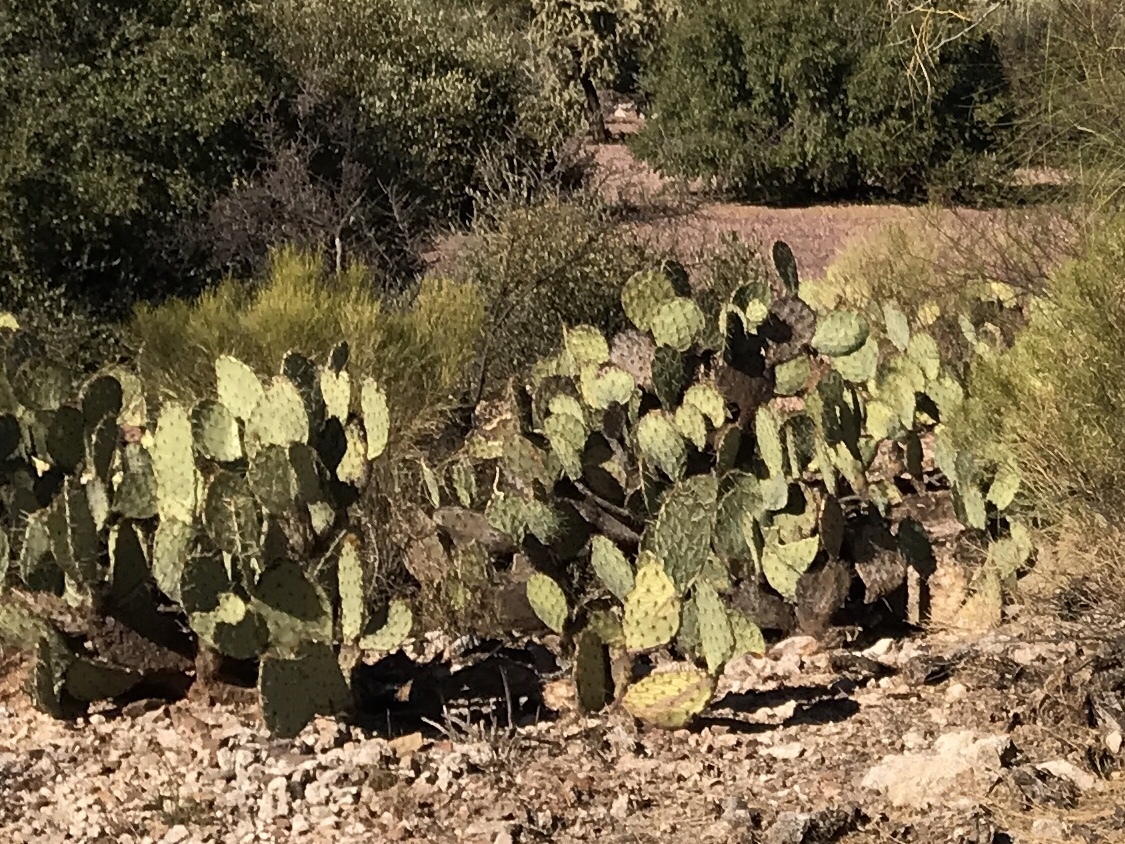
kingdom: Plantae
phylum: Tracheophyta
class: Magnoliopsida
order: Caryophyllales
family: Cactaceae
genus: Opuntia
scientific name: Opuntia engelmannii
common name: Cactus-apple
